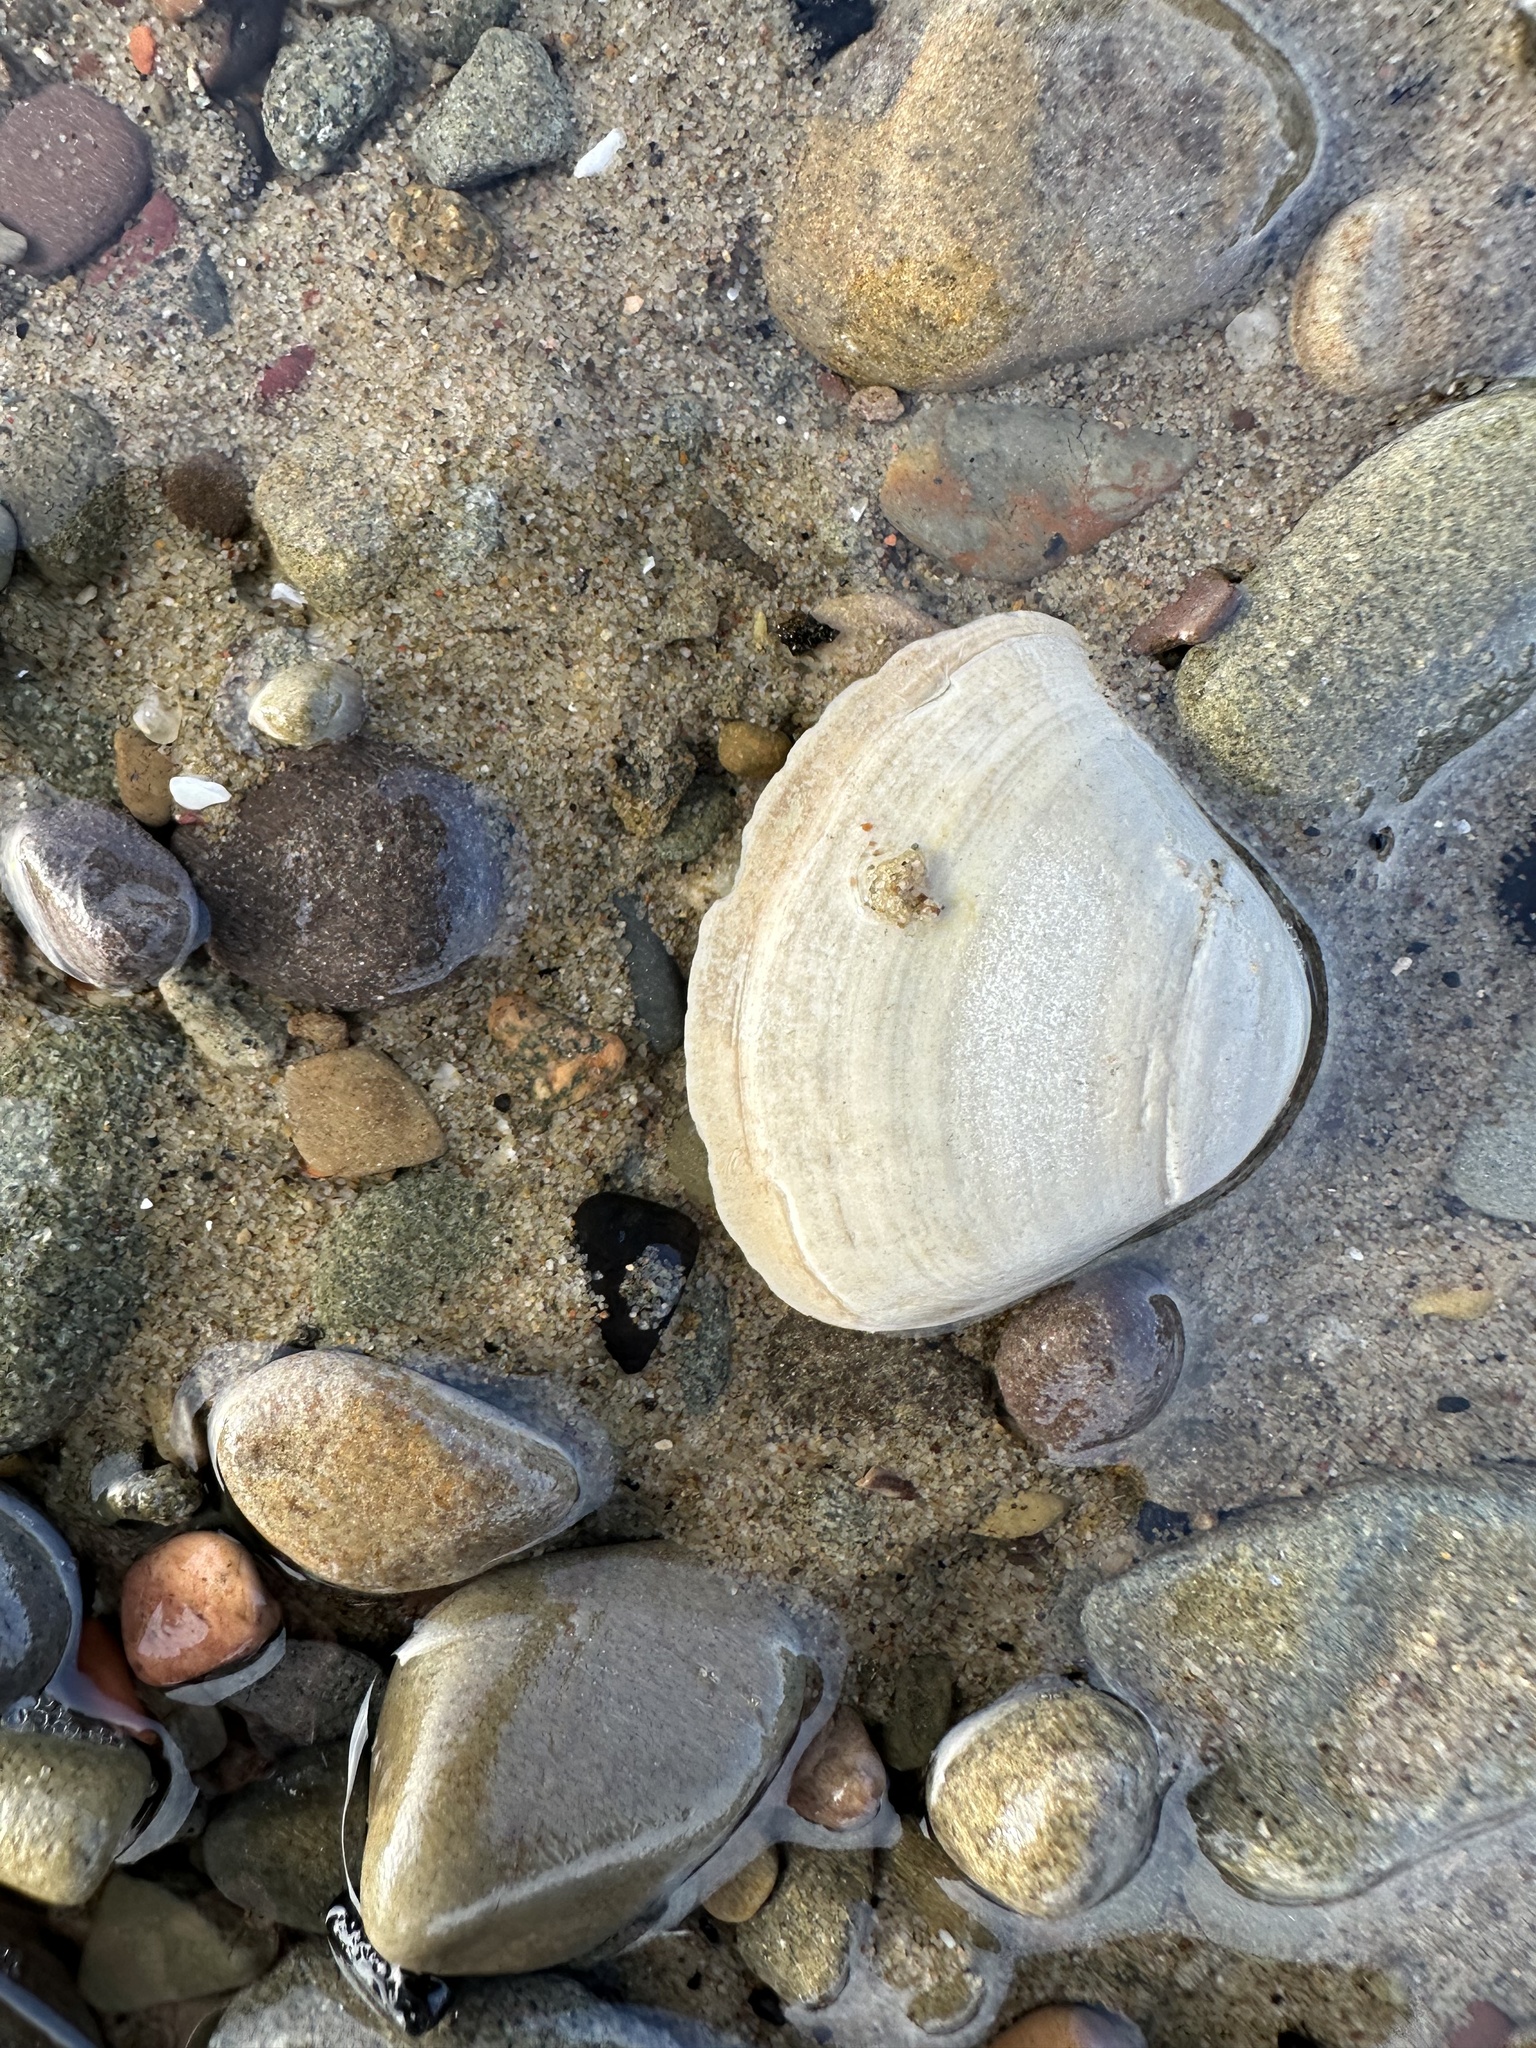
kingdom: Animalia
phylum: Mollusca
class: Bivalvia
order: Venerida
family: Mactridae
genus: Spisula
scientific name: Spisula solidissima
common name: Atlantic surf clam
